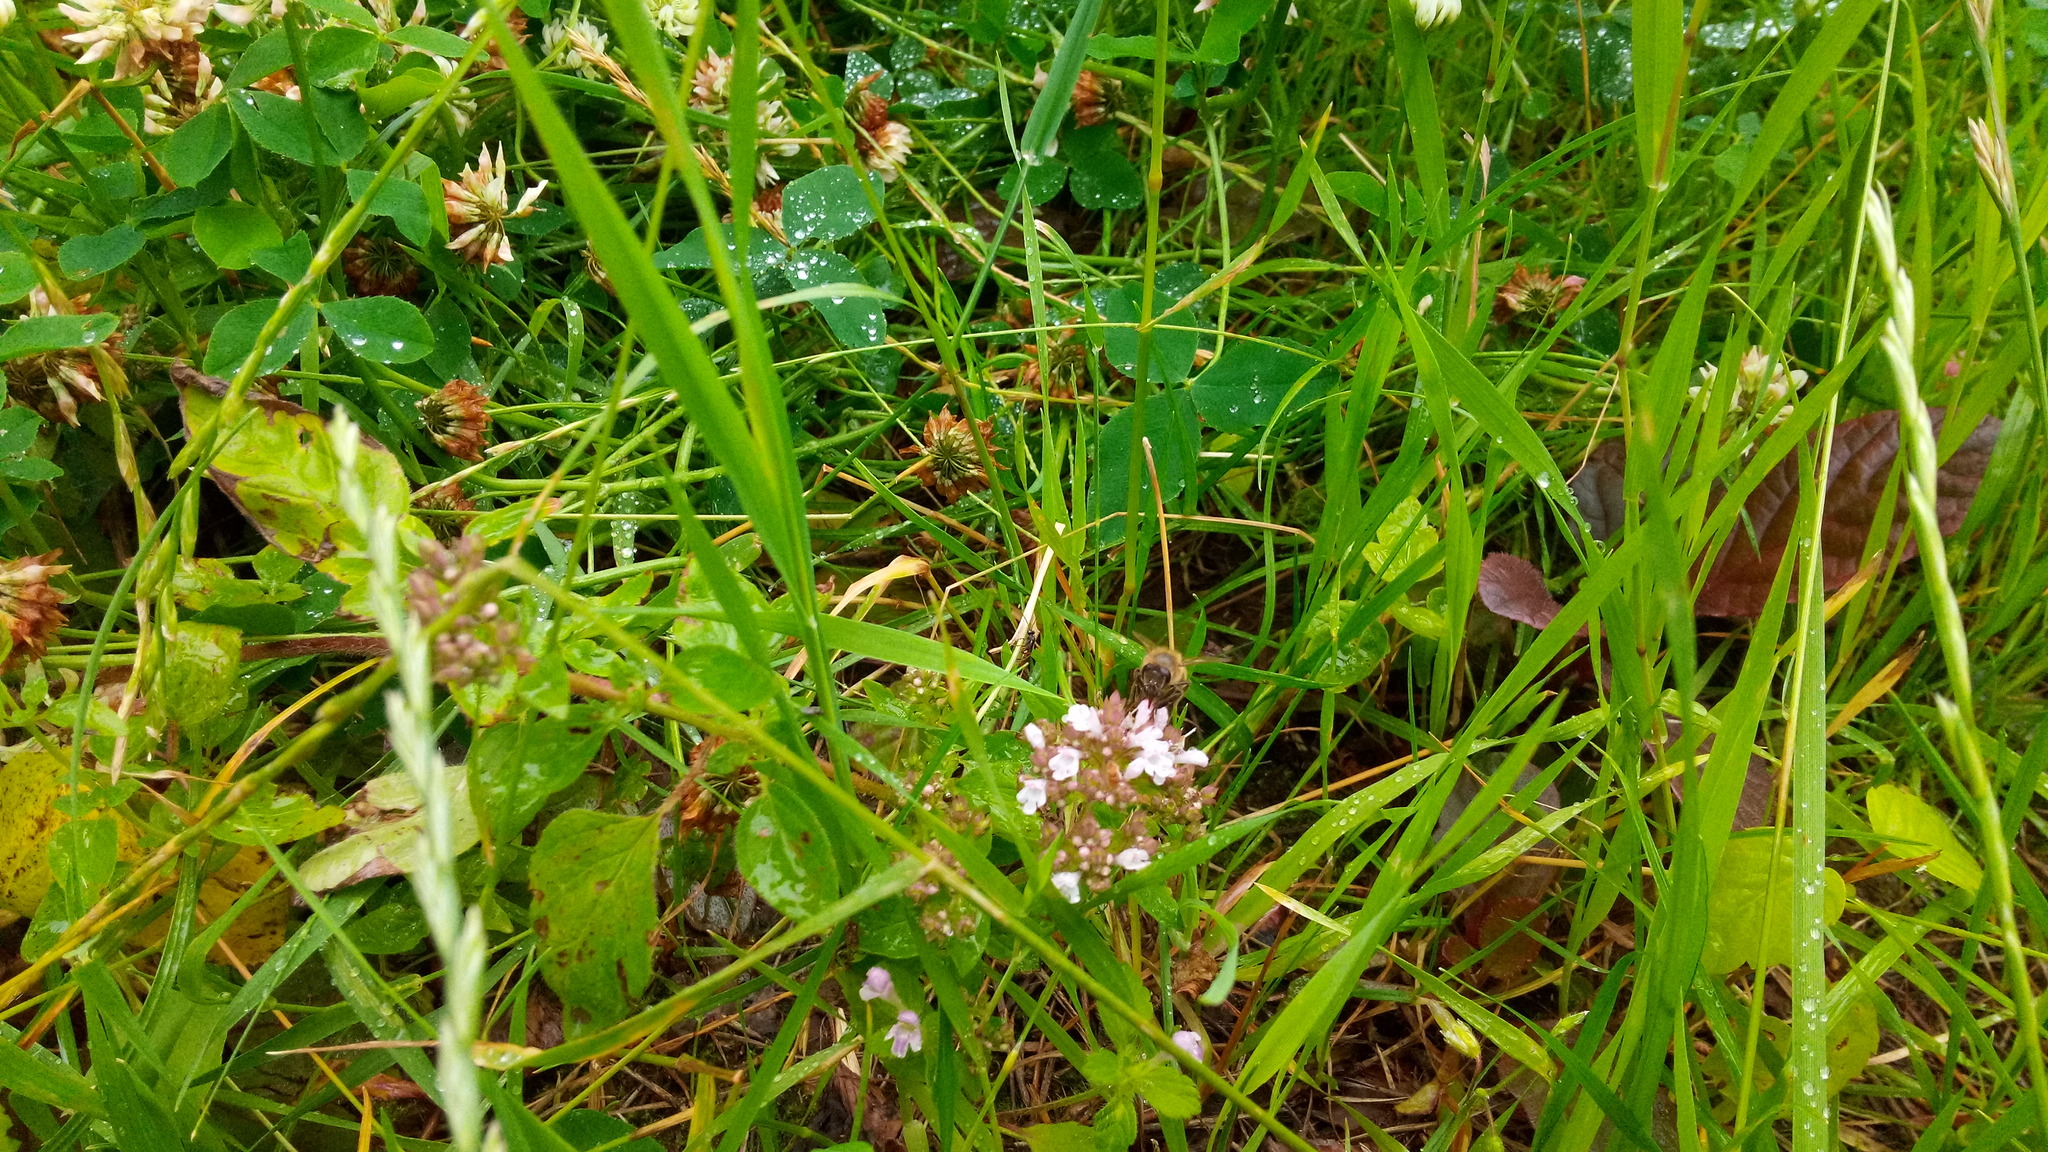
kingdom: Plantae
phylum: Tracheophyta
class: Magnoliopsida
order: Lamiales
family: Lamiaceae
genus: Origanum
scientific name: Origanum vulgare
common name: Wild marjoram
